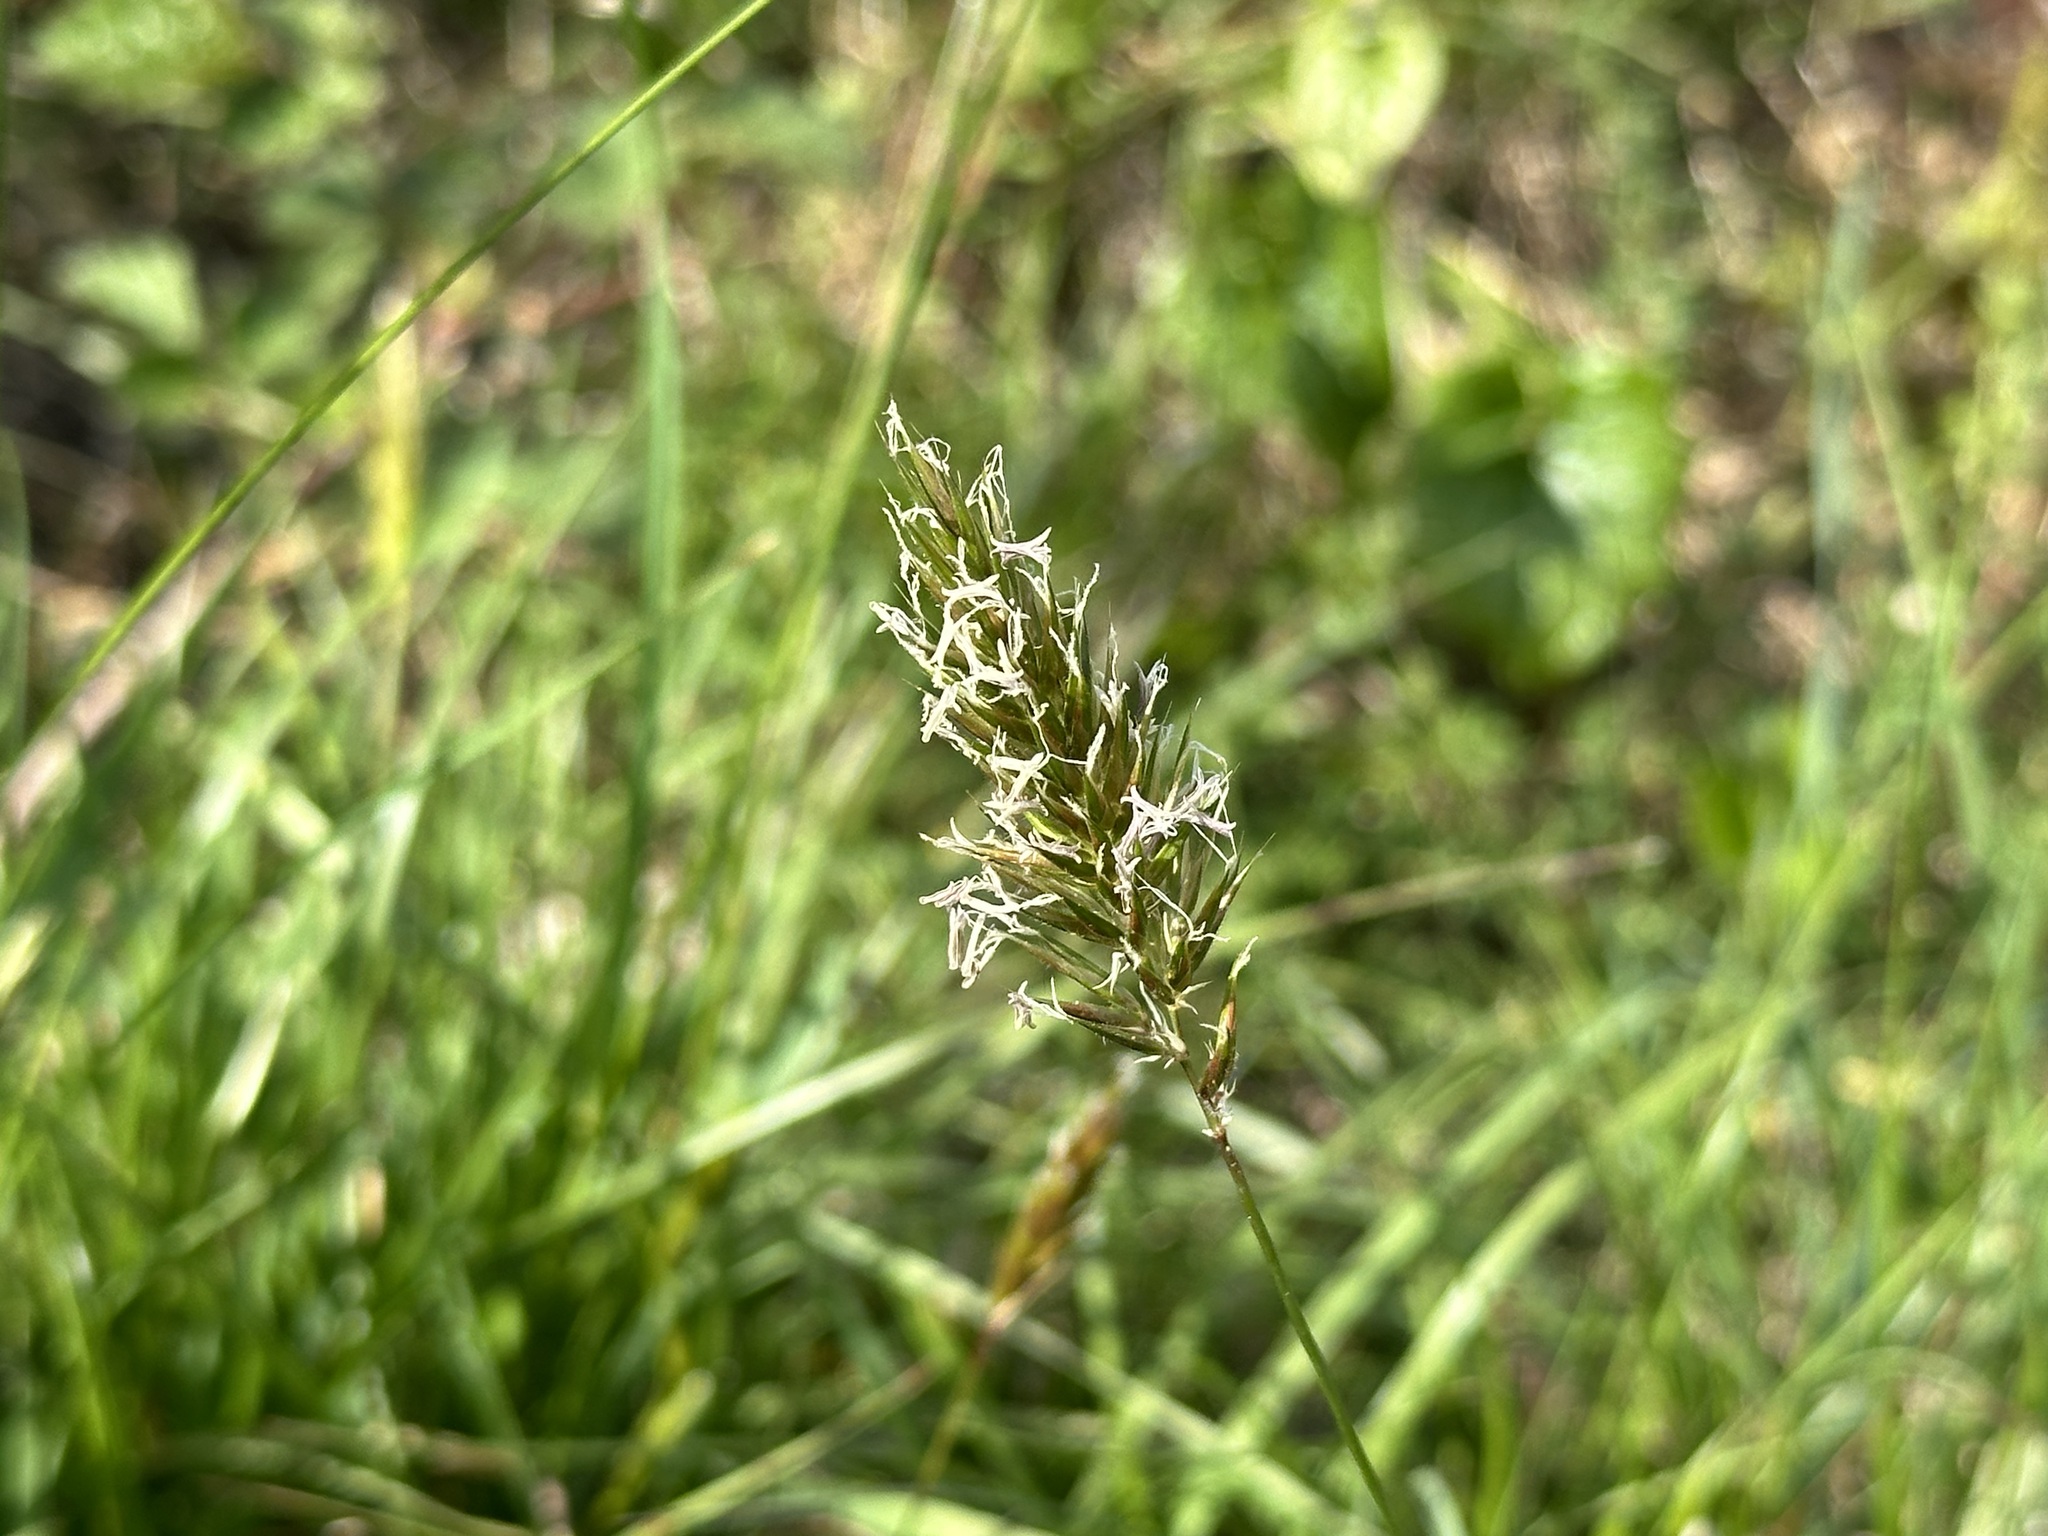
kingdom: Plantae
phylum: Tracheophyta
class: Liliopsida
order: Poales
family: Poaceae
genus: Anthoxanthum
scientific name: Anthoxanthum odoratum
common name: Sweet vernalgrass
